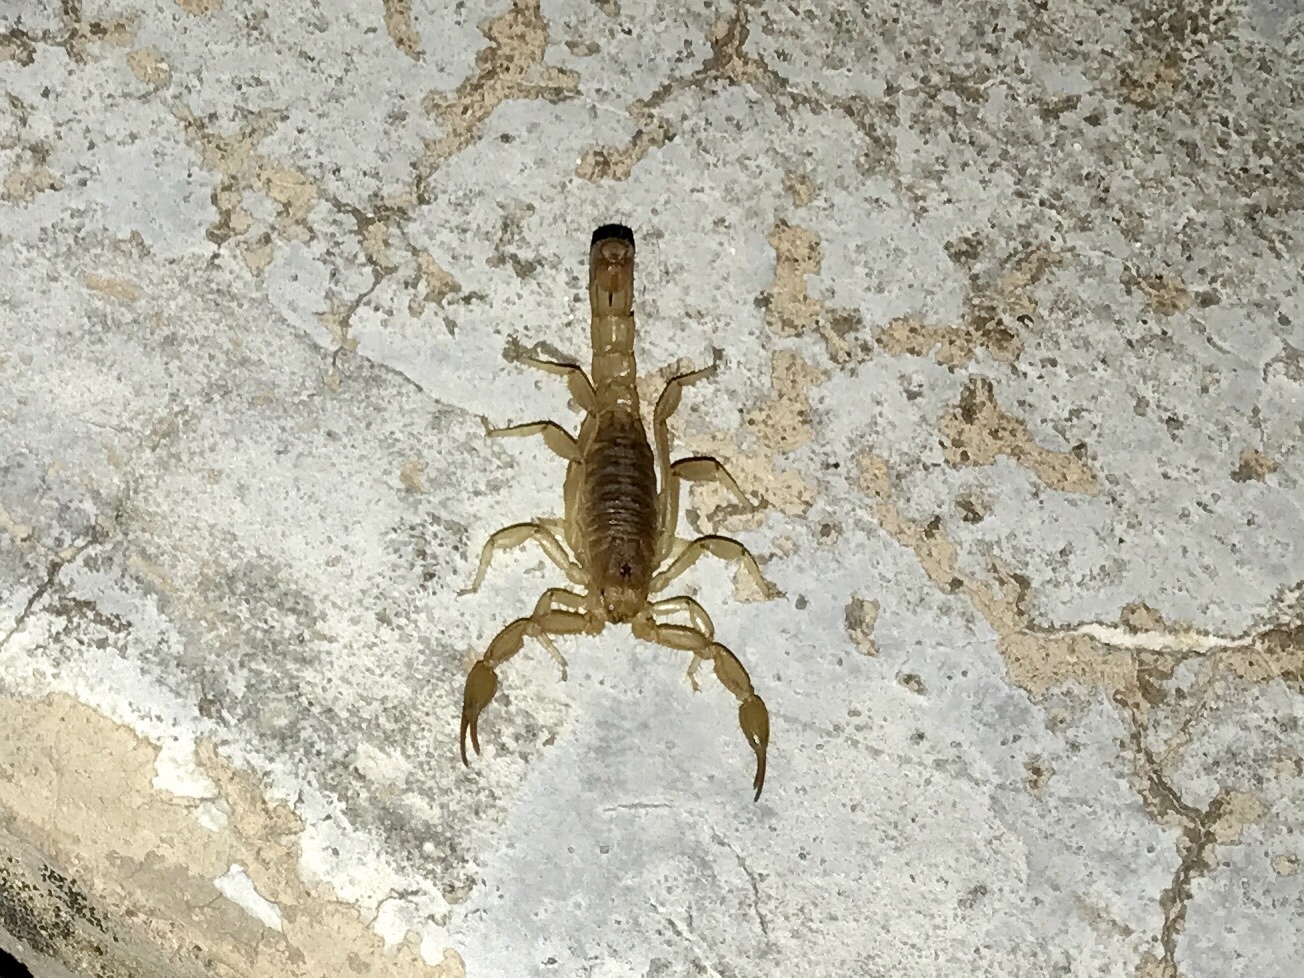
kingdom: Animalia
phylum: Arthropoda
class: Arachnida
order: Scorpiones
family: Vaejovidae
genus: Paravaejovis
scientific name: Paravaejovis spinigerus
